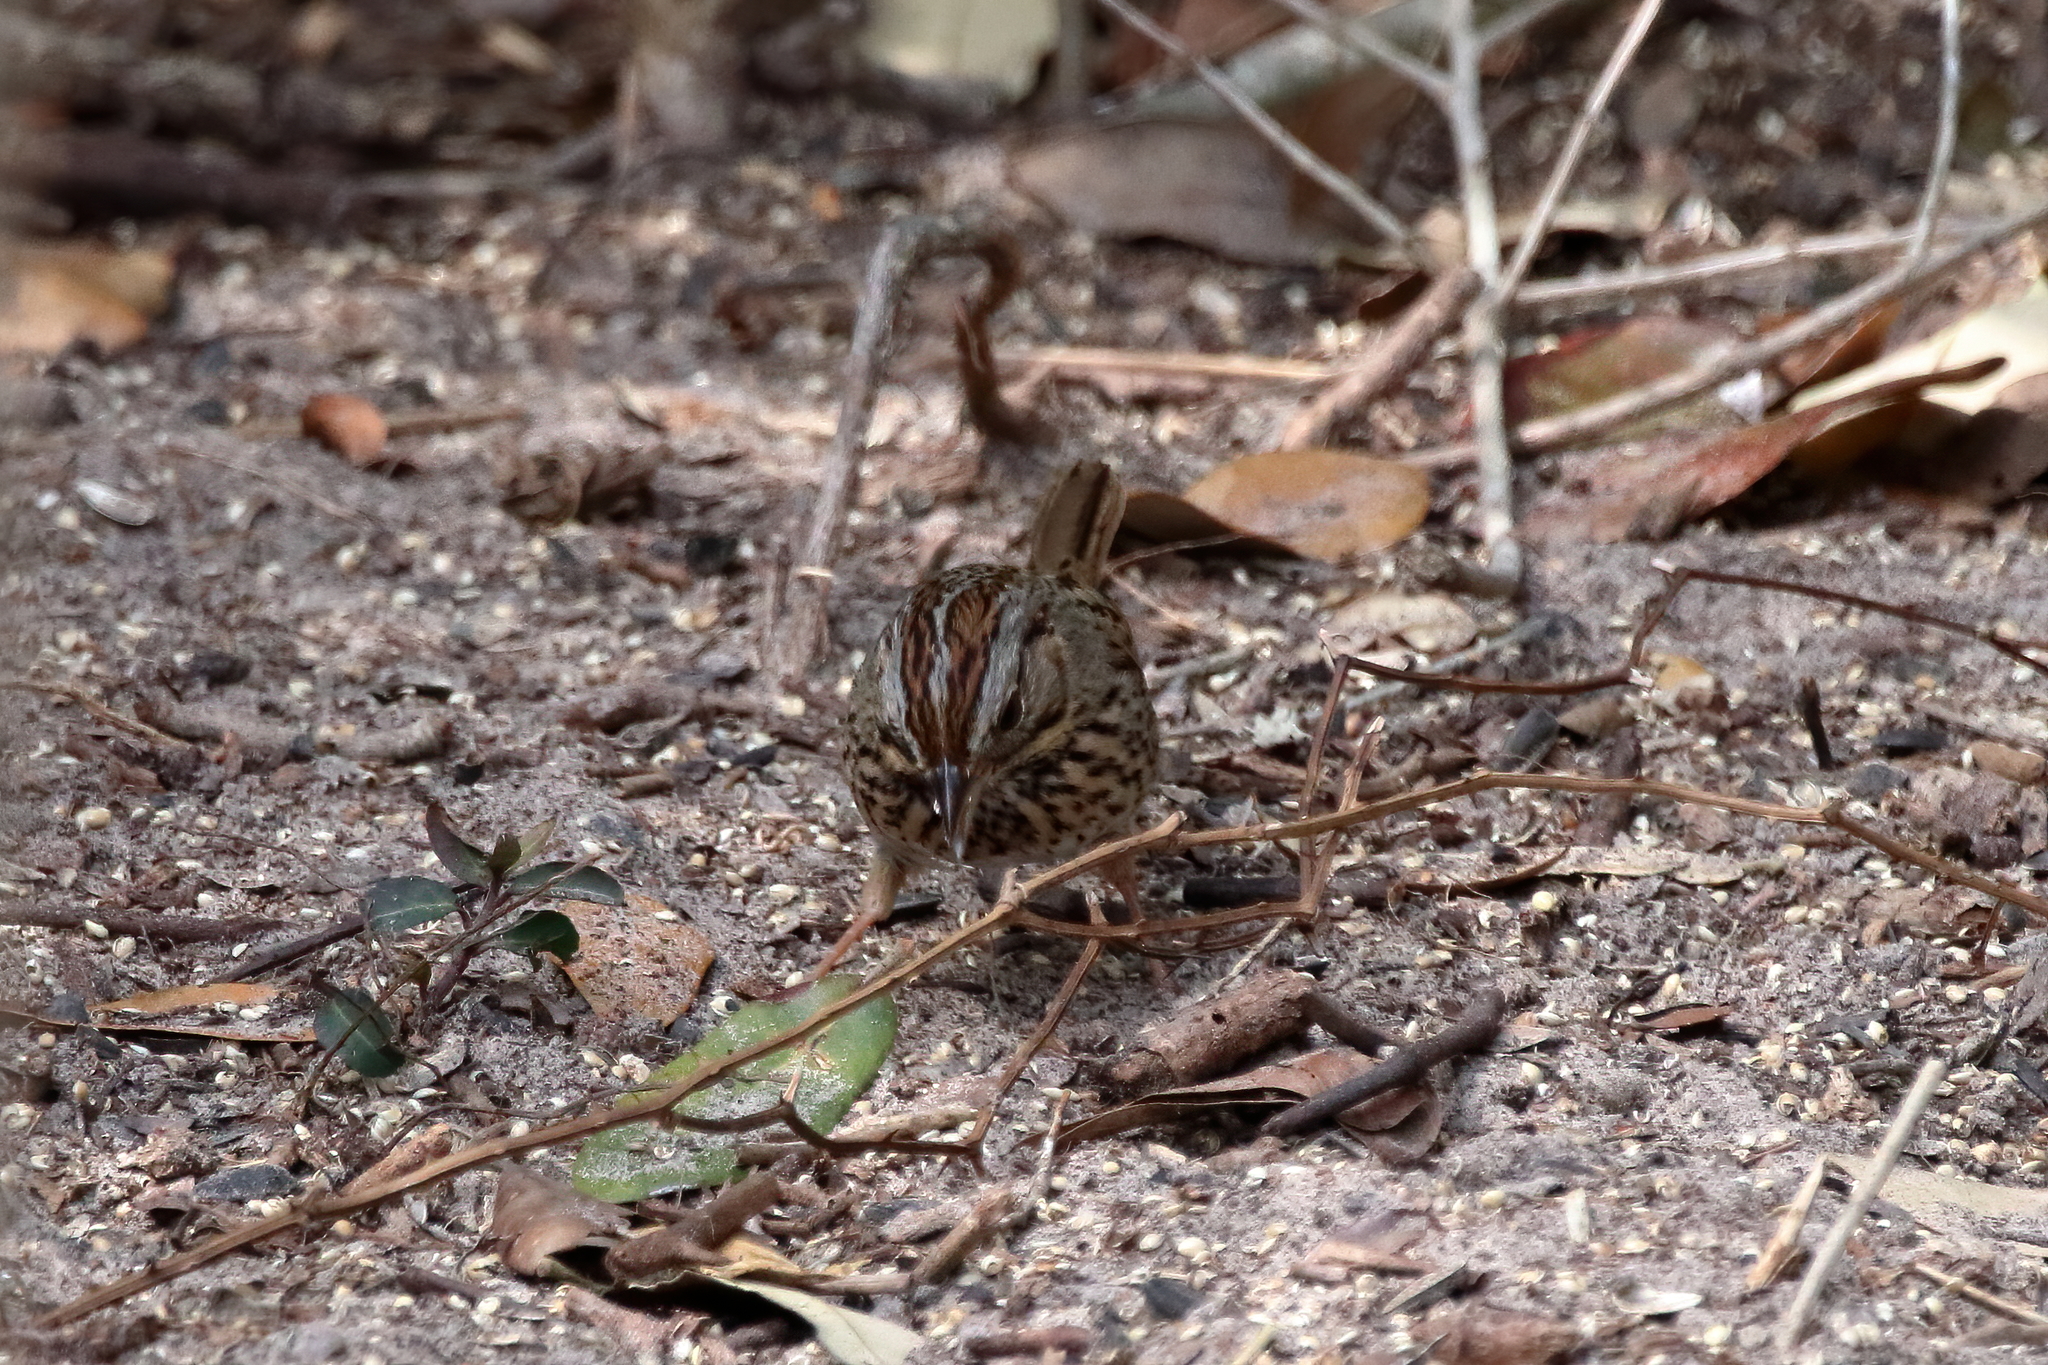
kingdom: Animalia
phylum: Chordata
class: Aves
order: Passeriformes
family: Passerellidae
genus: Melospiza
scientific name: Melospiza lincolnii
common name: Lincoln's sparrow
